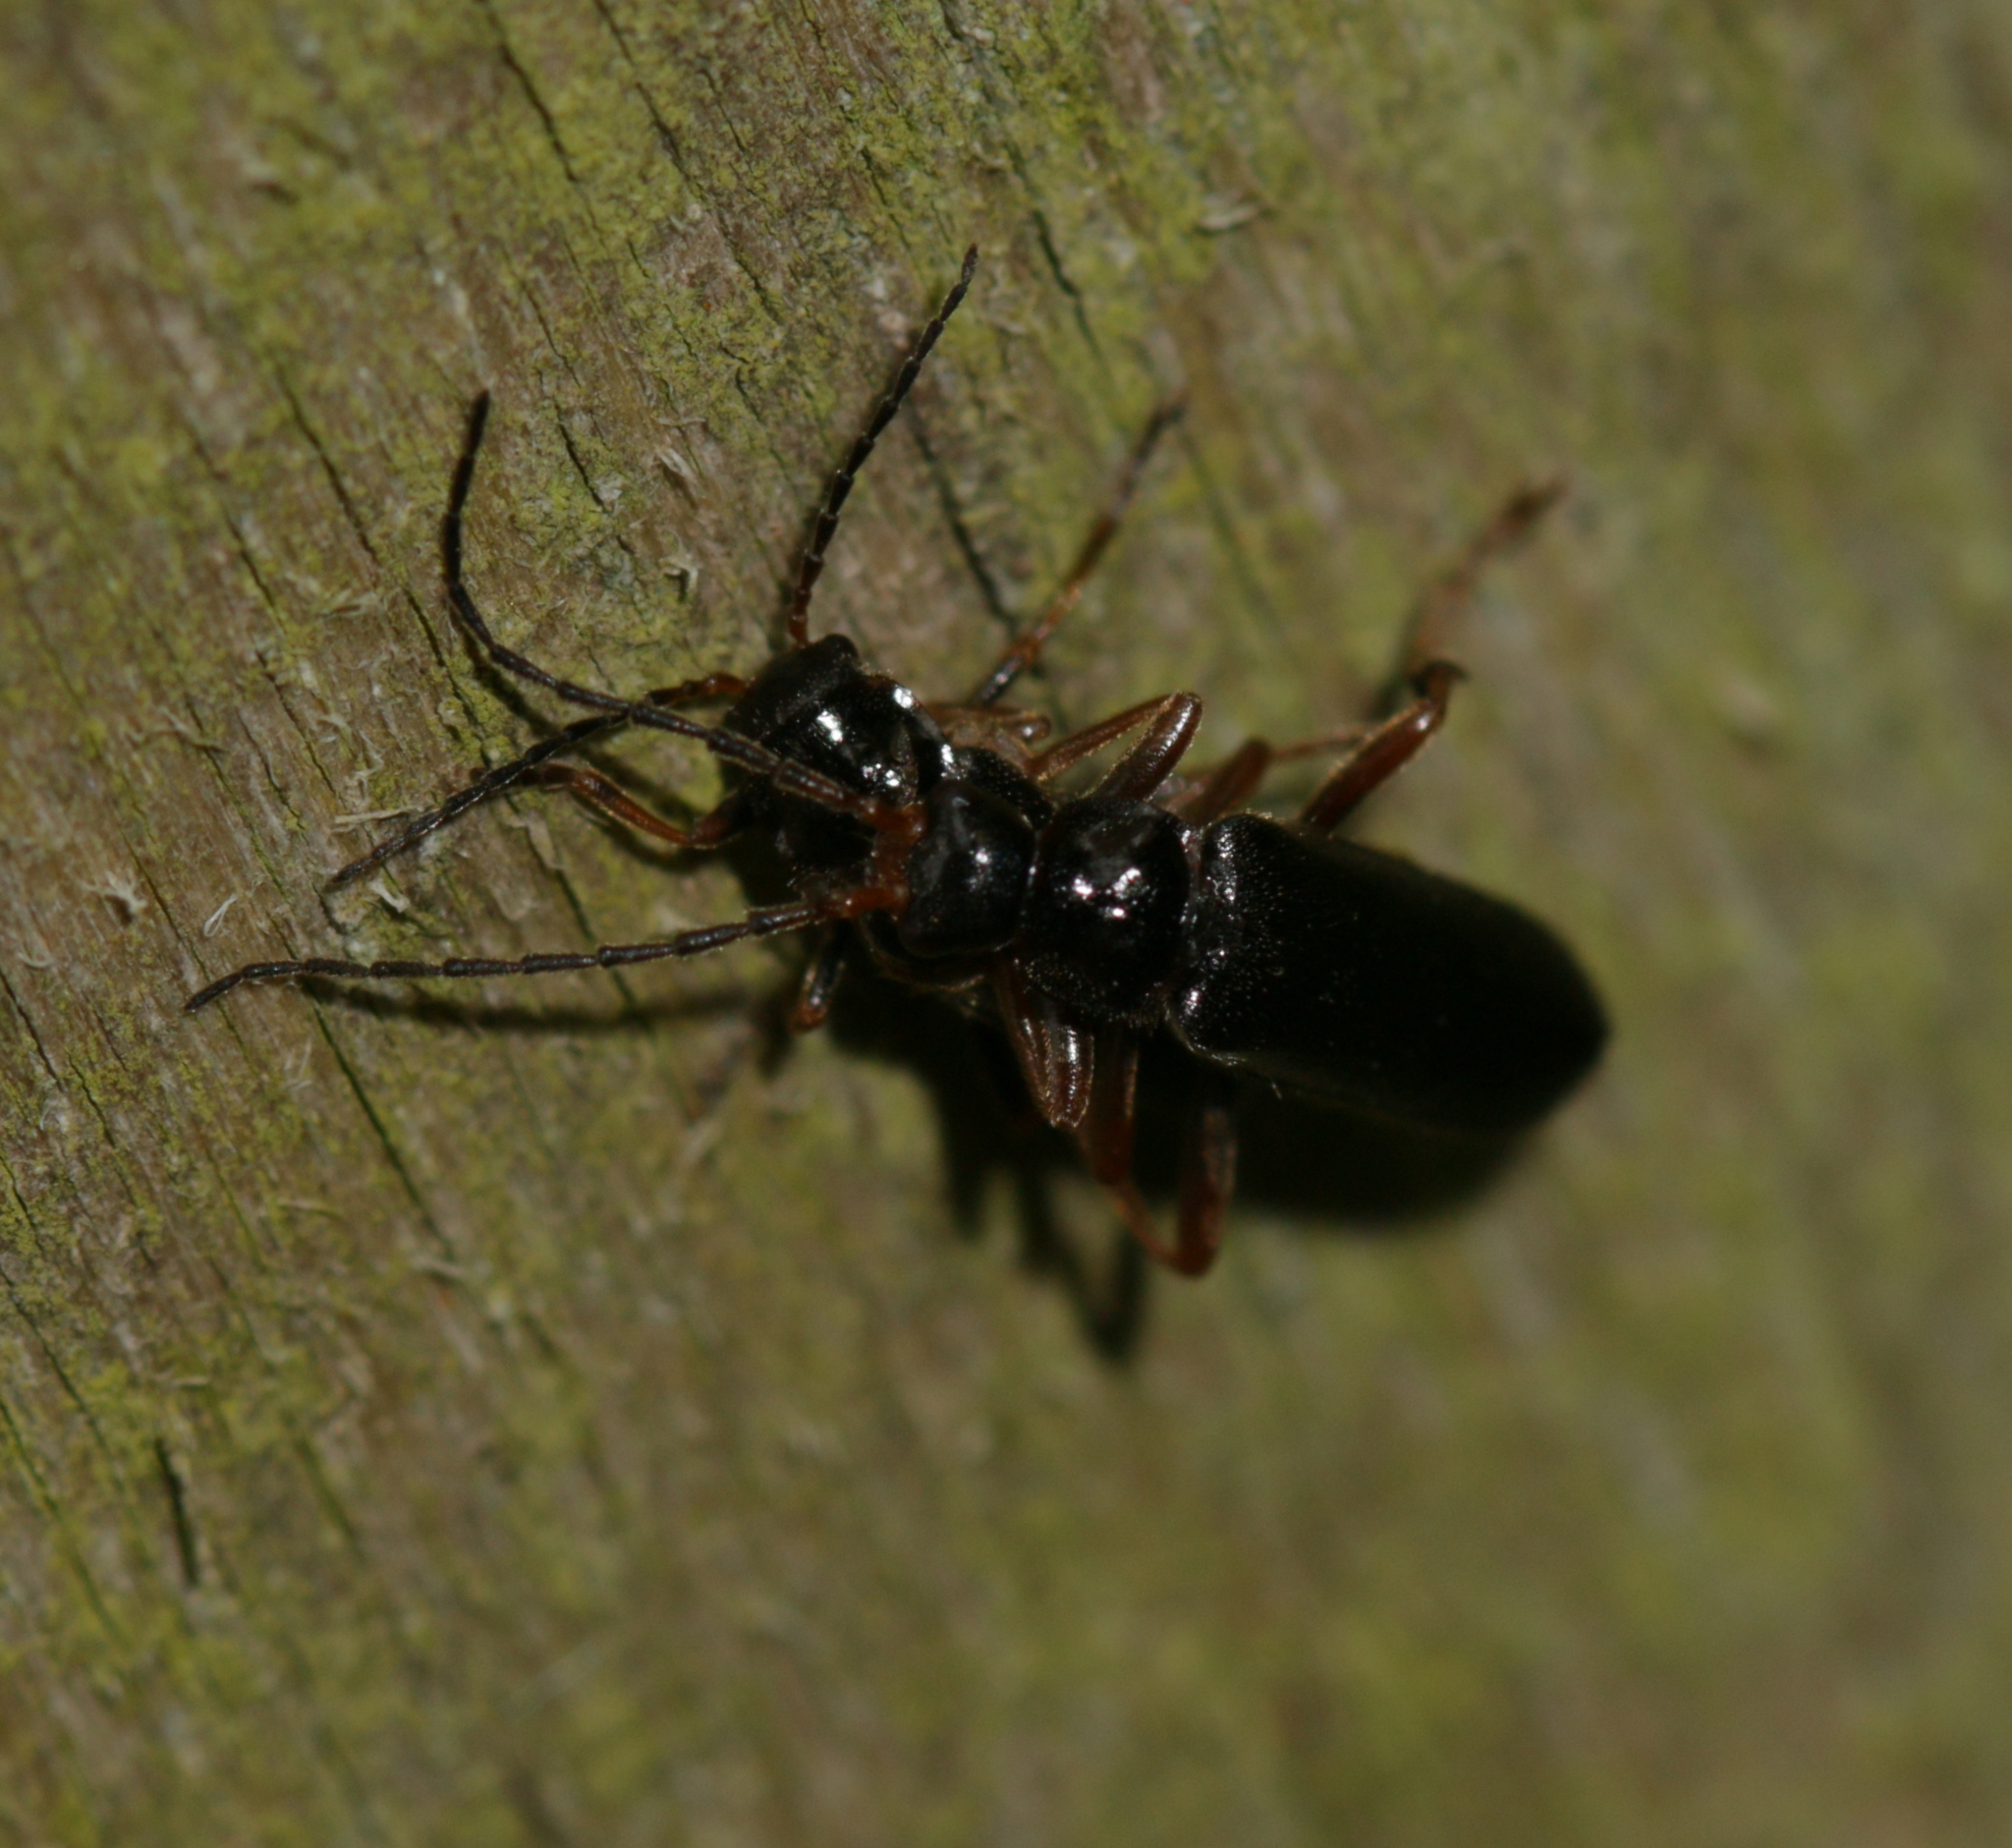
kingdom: Animalia
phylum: Arthropoda
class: Insecta
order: Coleoptera
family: Cantharidae
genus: Cantharis
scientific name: Cantharis flavilabris
